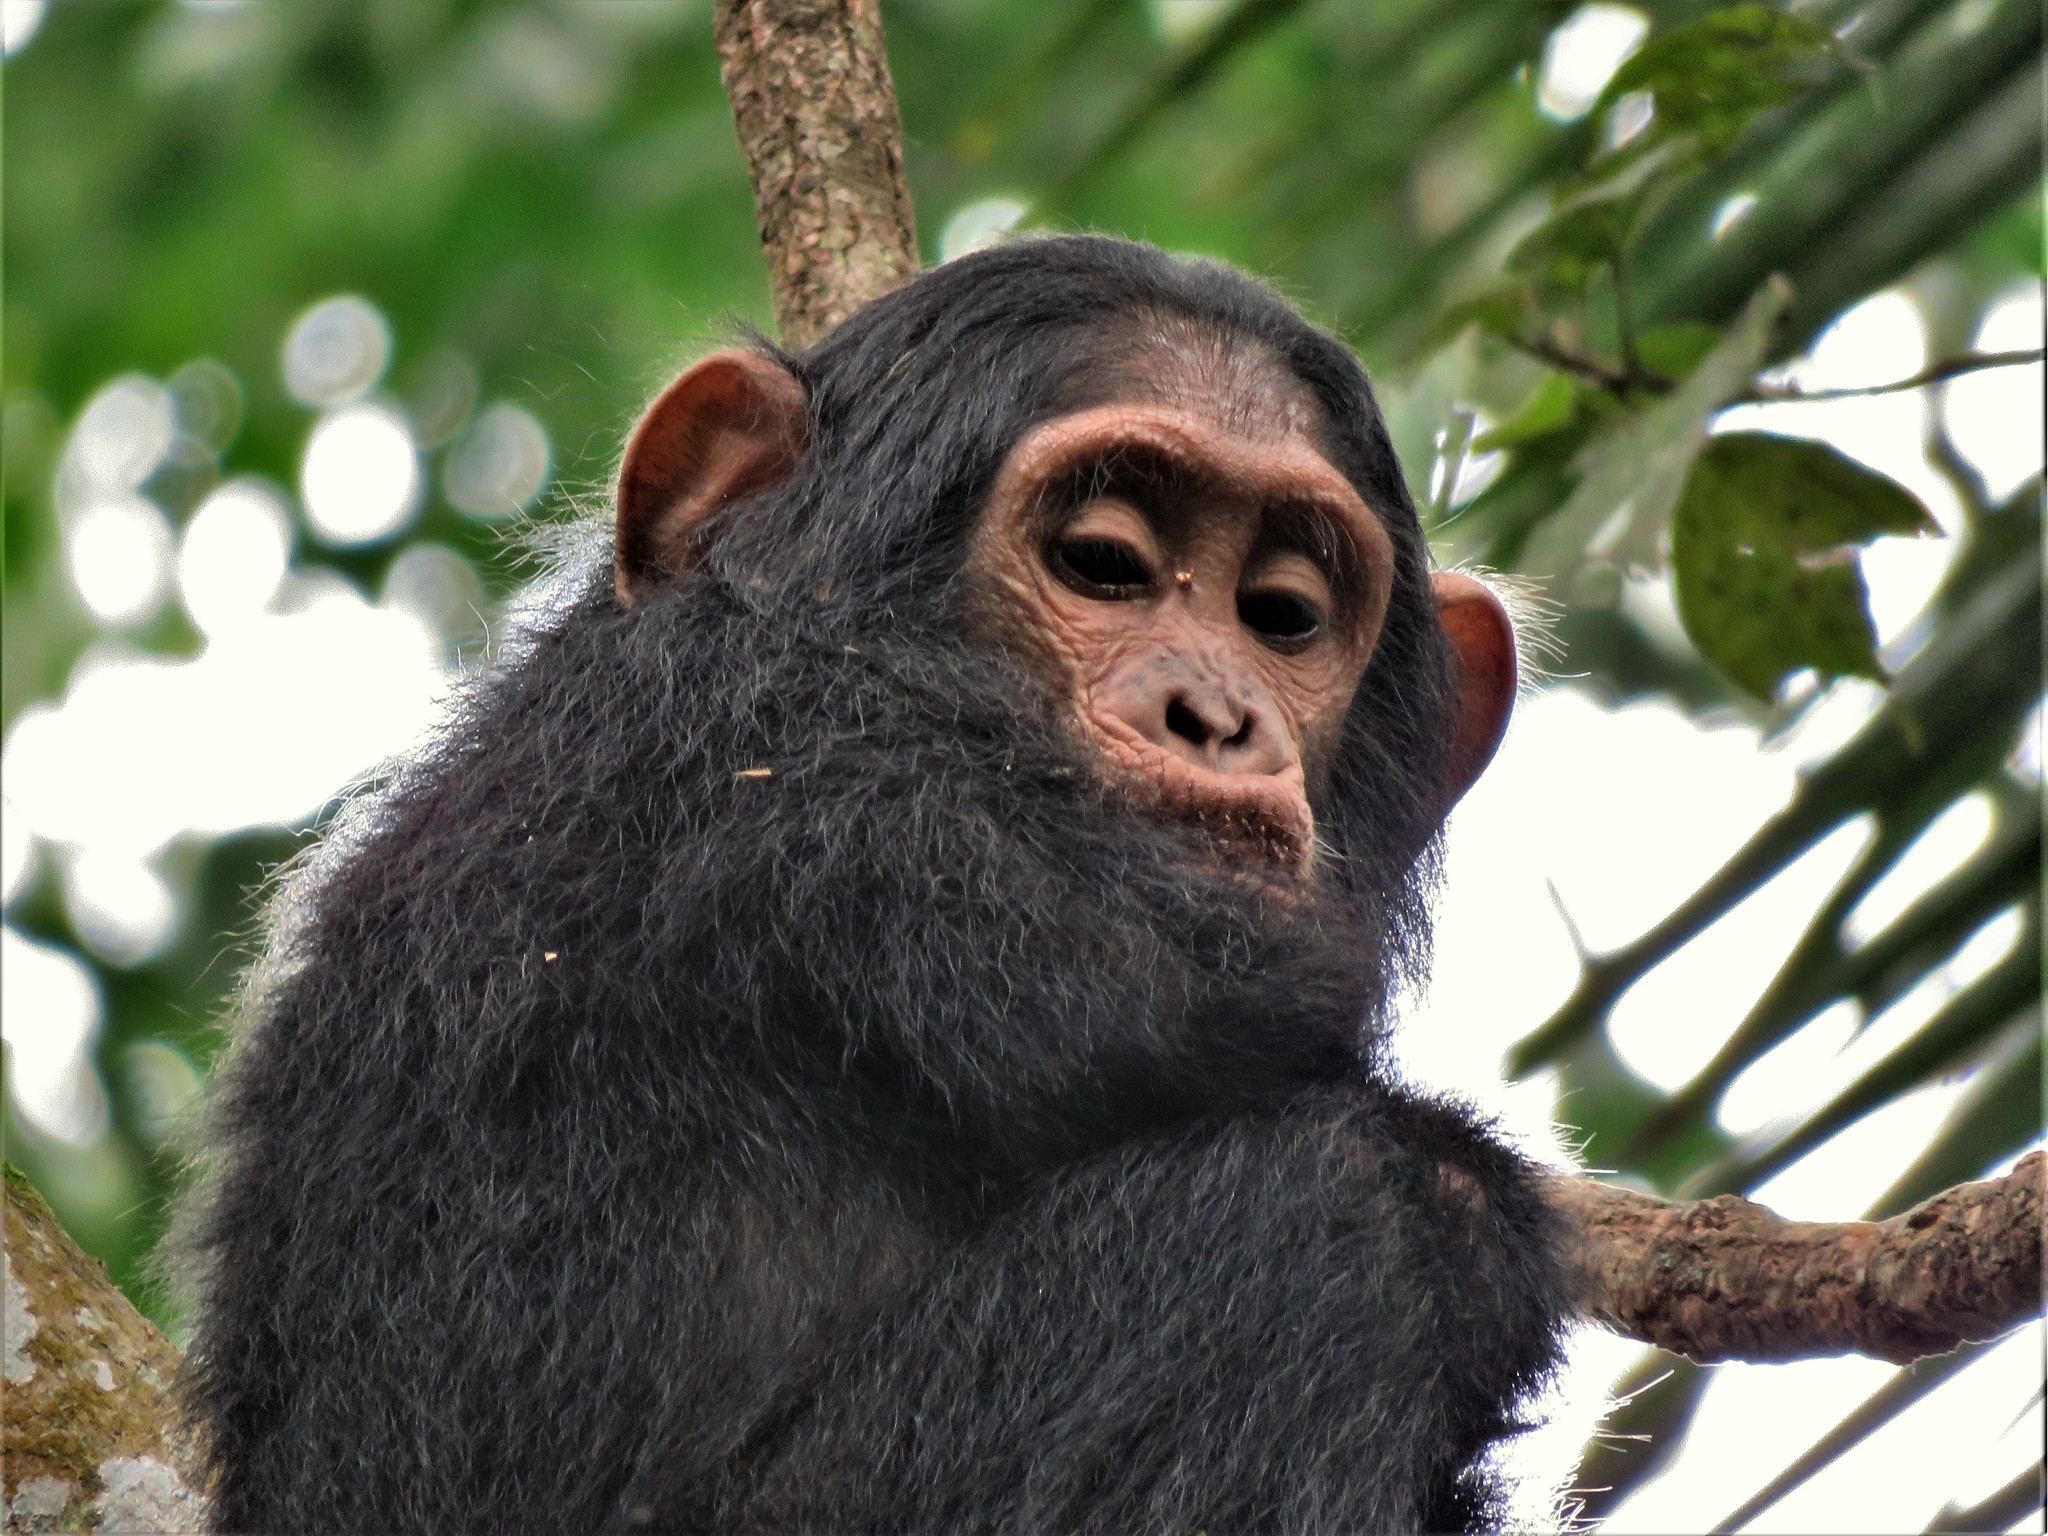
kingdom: Animalia
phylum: Chordata
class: Mammalia
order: Primates
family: Hominidae
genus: Pan
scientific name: Pan troglodytes
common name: Chimpanzee
